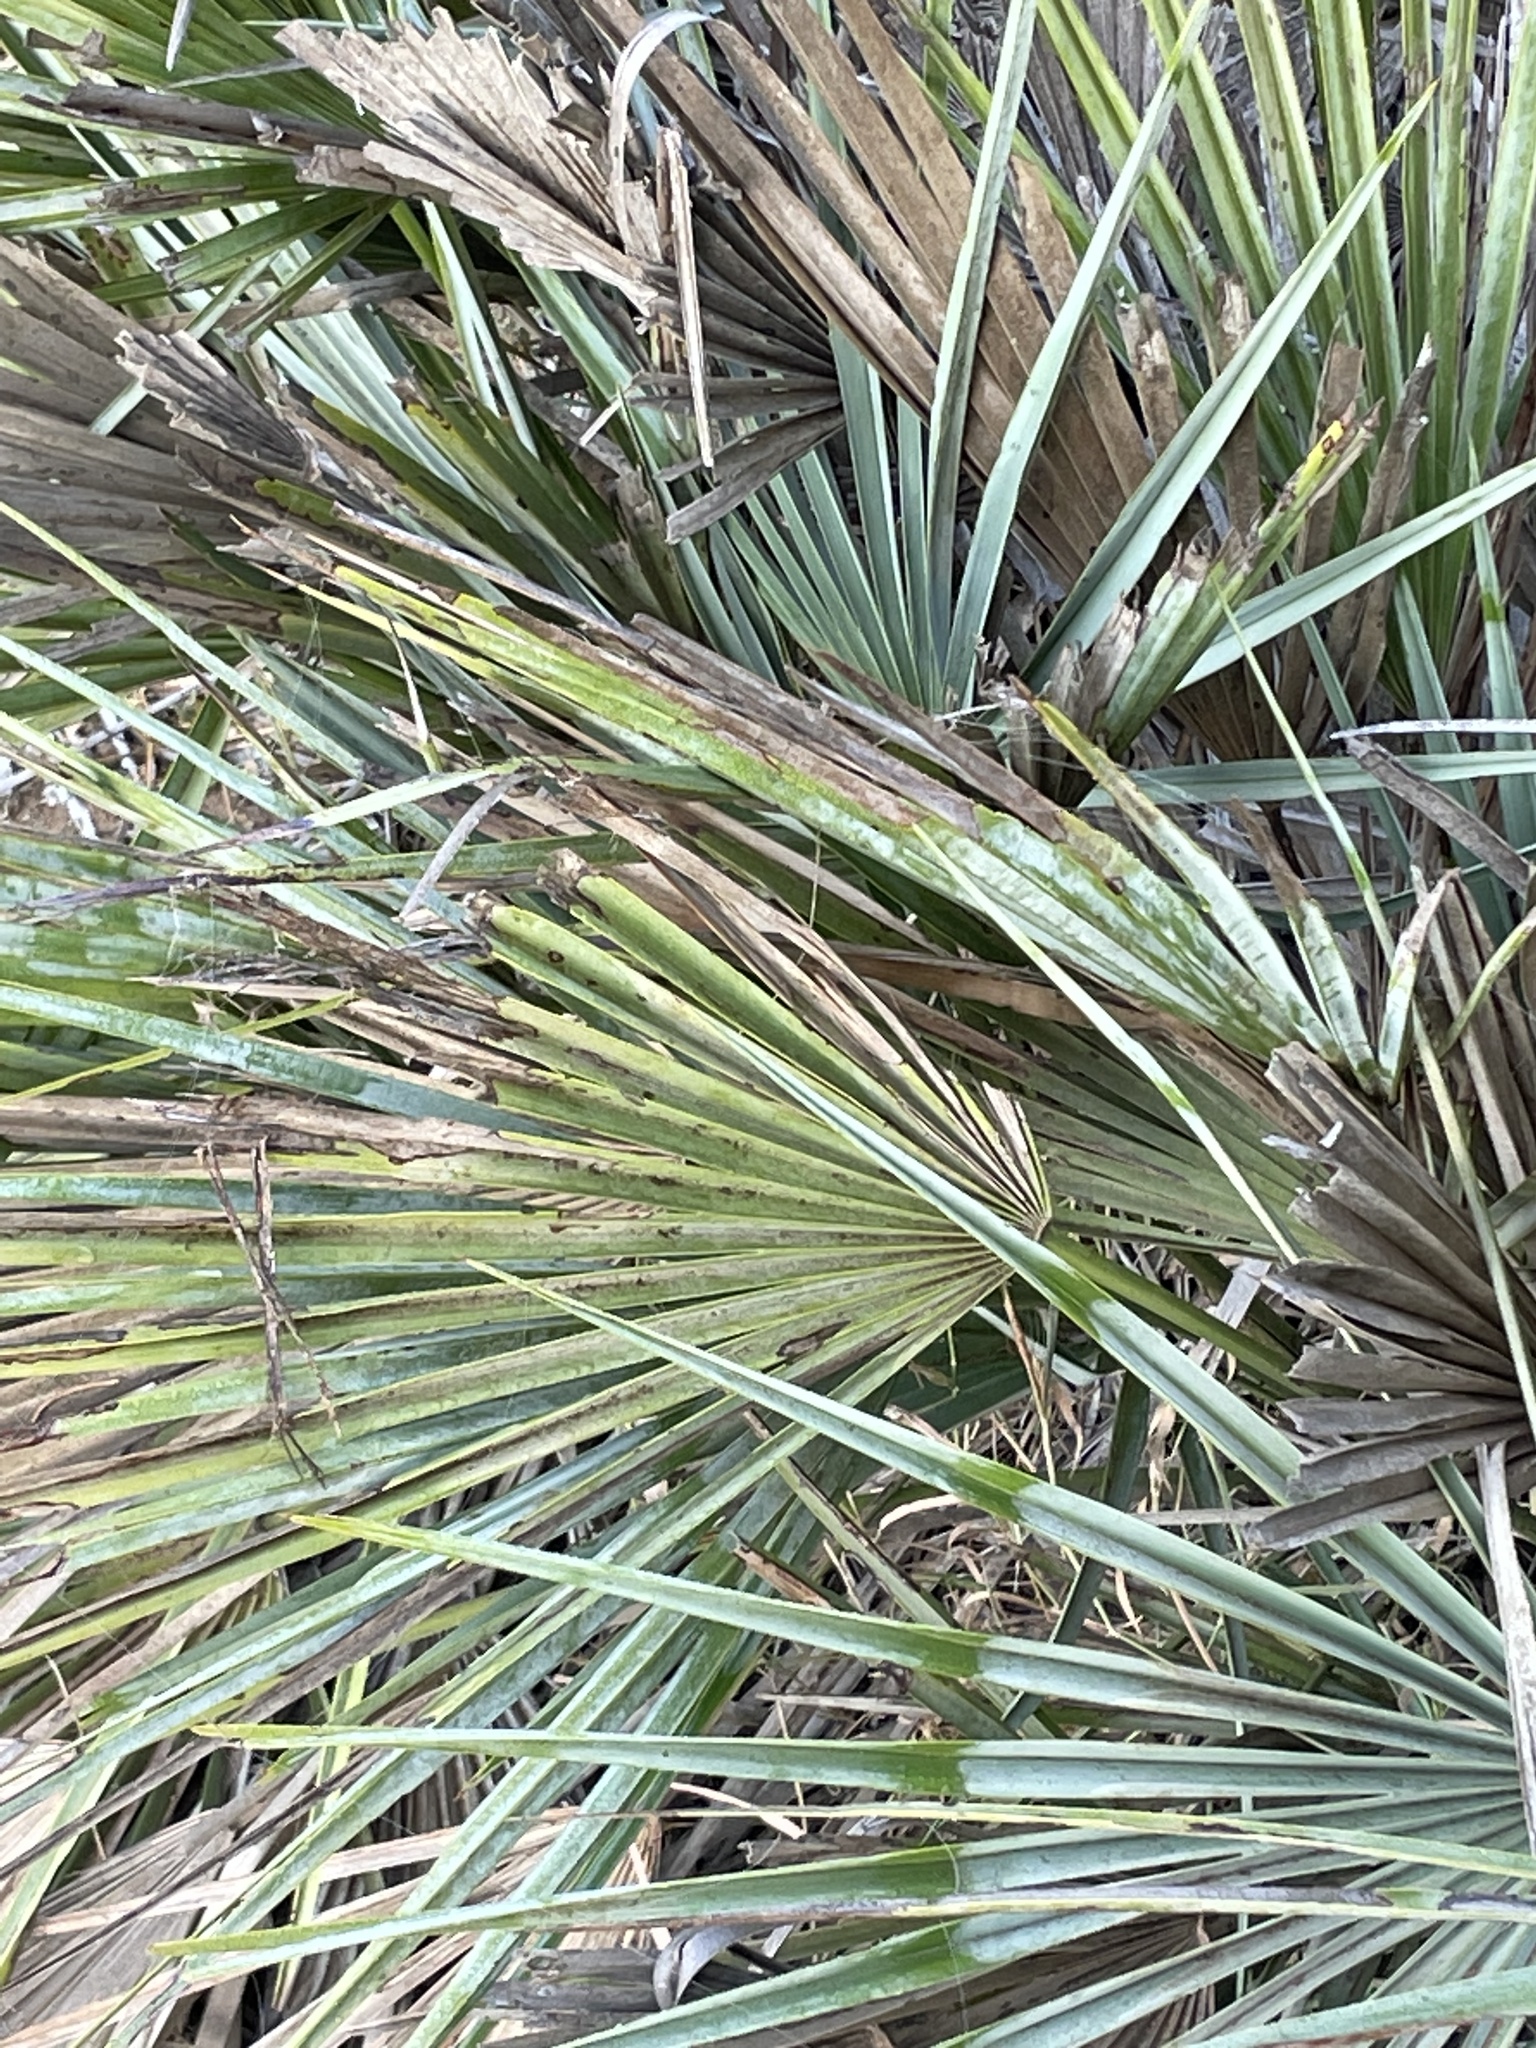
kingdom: Plantae
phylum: Tracheophyta
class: Liliopsida
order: Arecales
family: Arecaceae
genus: Chamaerops
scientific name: Chamaerops humilis
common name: Dwarf fan palm
